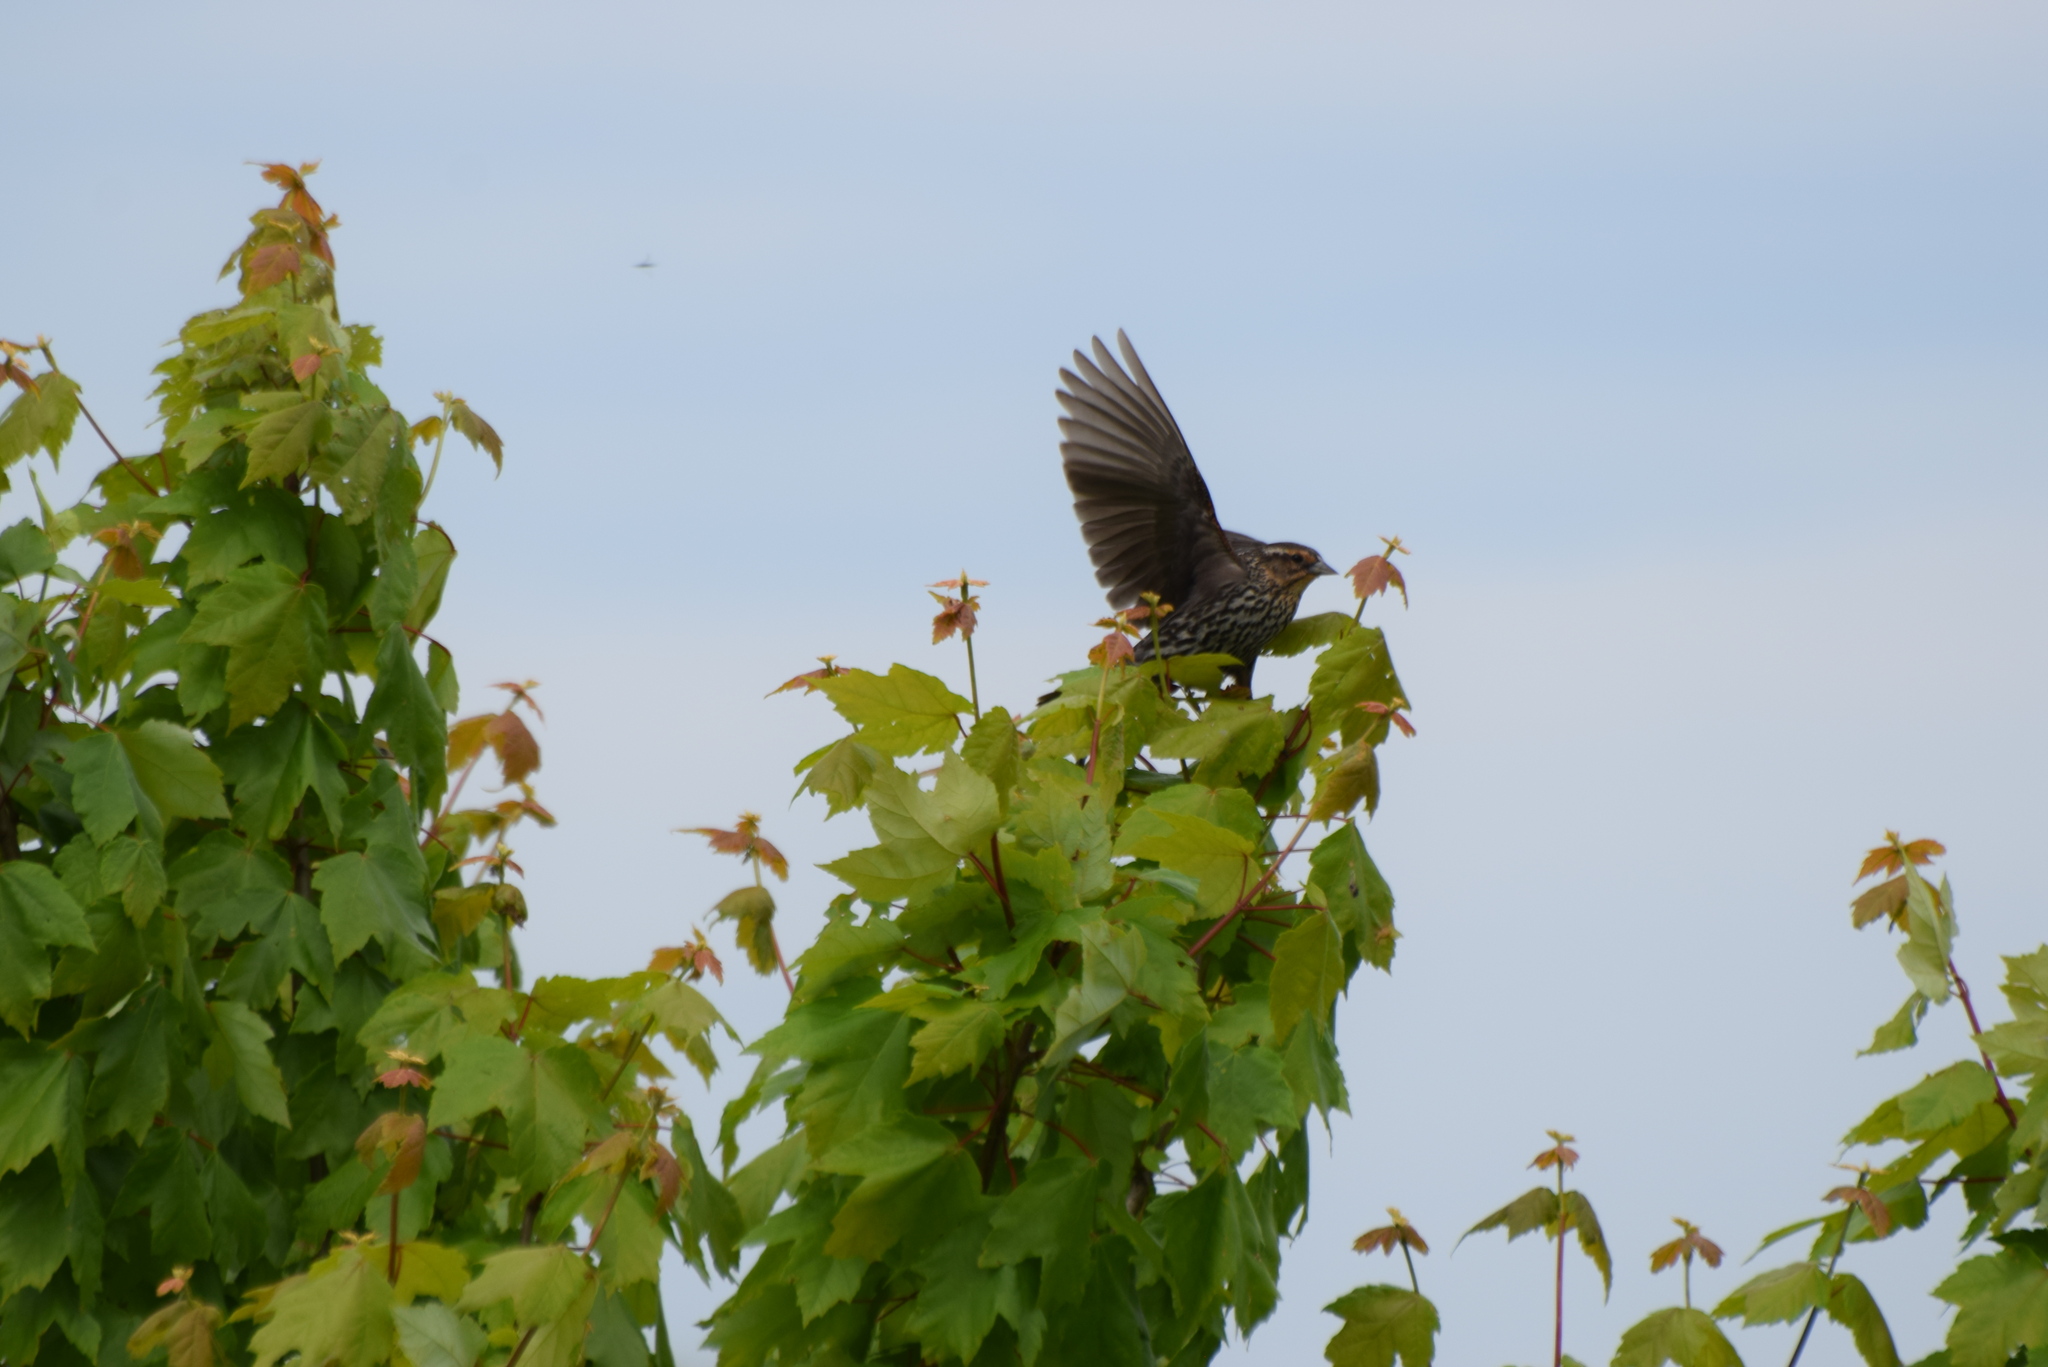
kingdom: Animalia
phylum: Chordata
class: Aves
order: Passeriformes
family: Icteridae
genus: Agelaius
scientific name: Agelaius phoeniceus
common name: Red-winged blackbird
